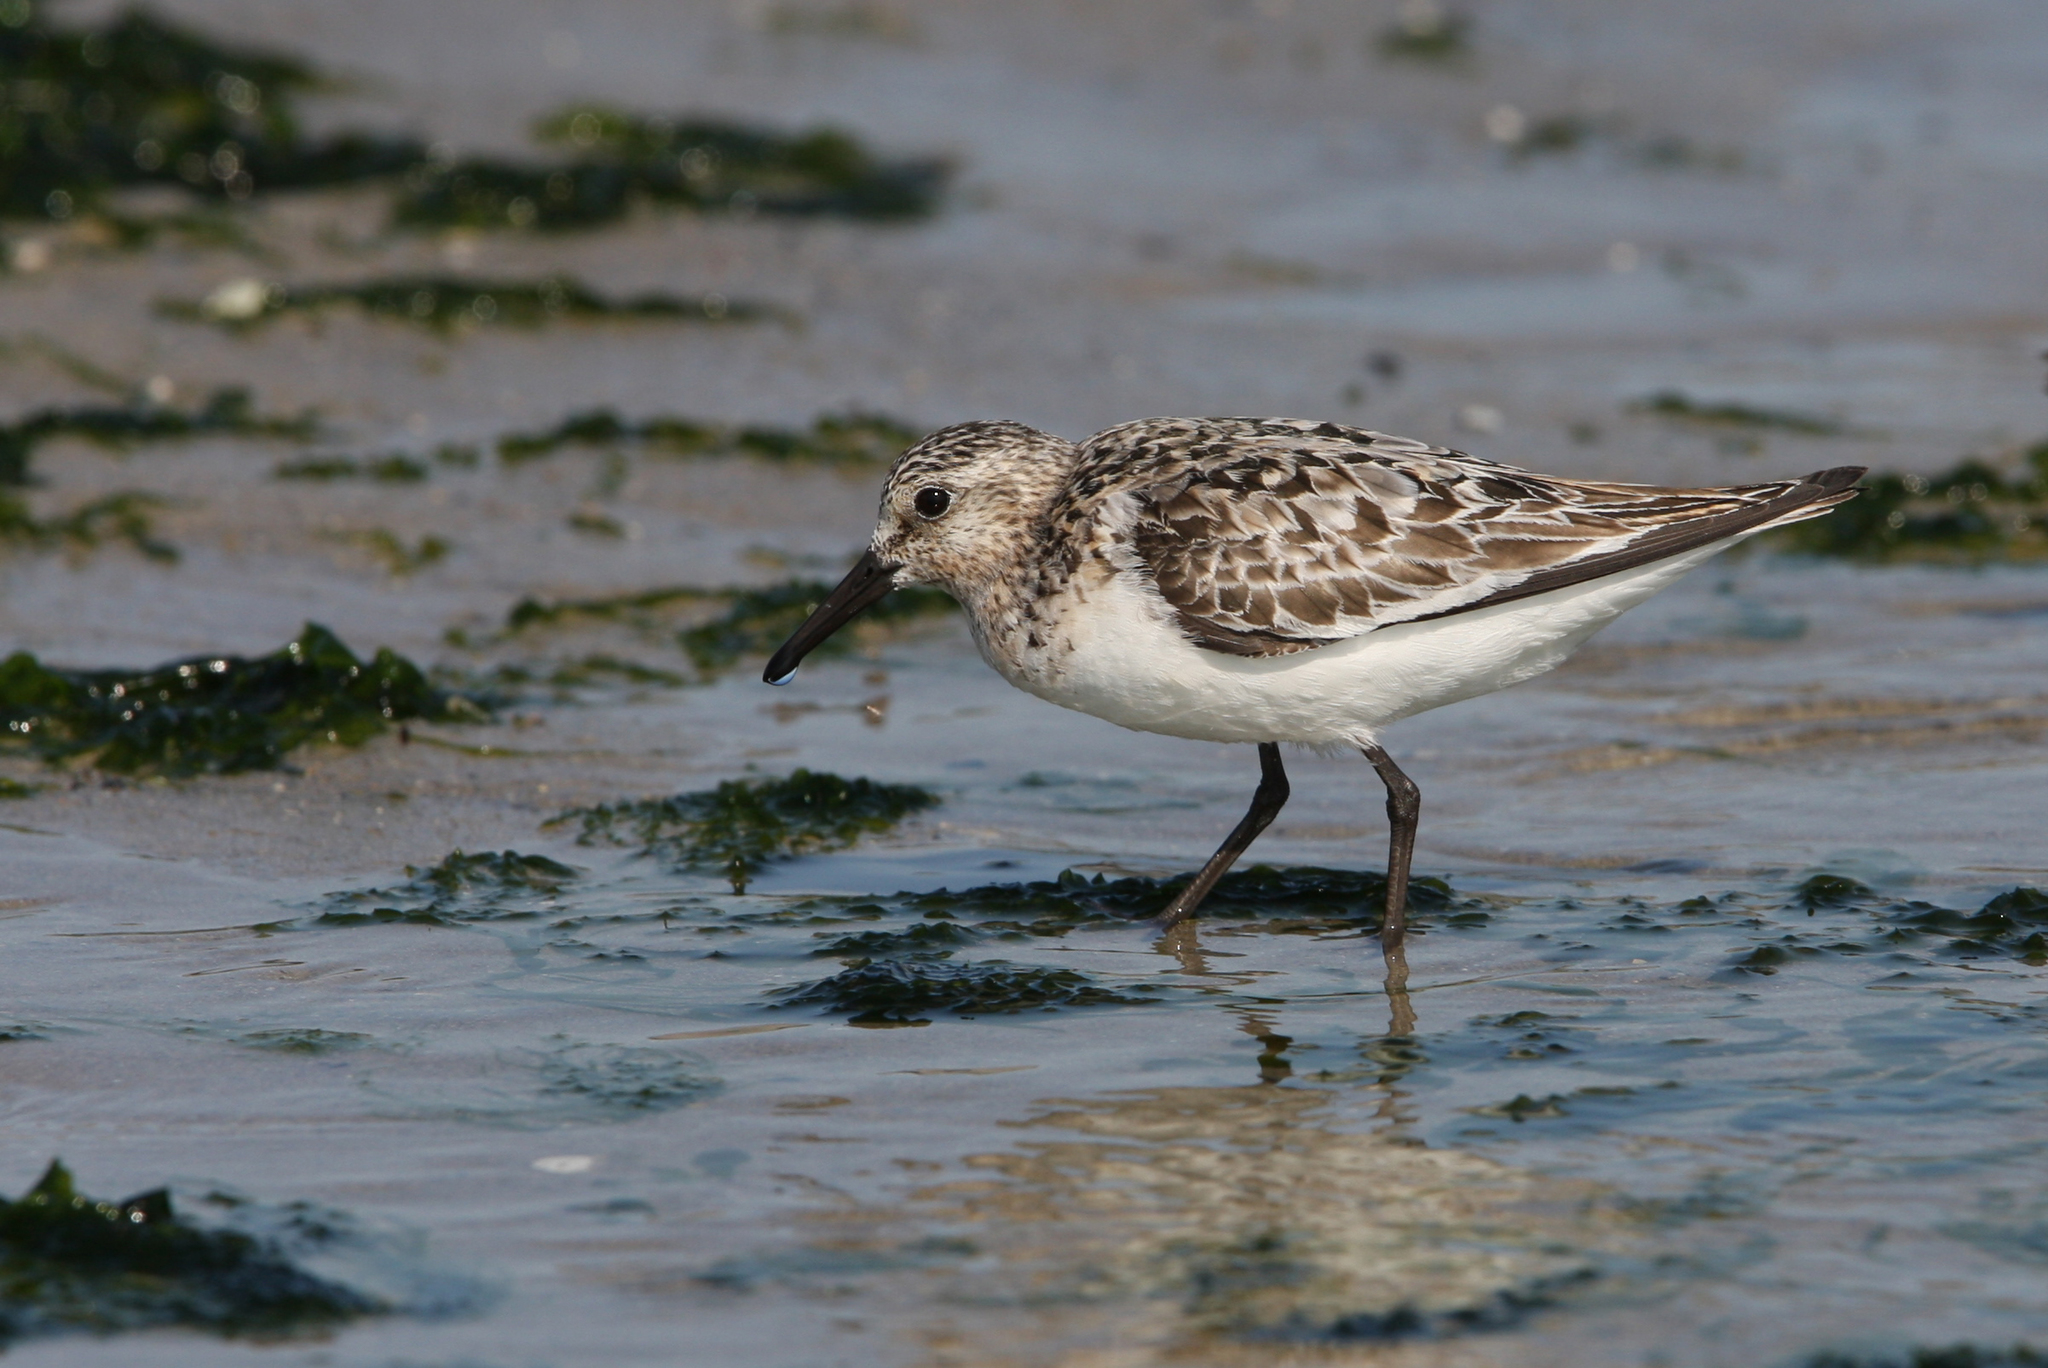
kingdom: Animalia
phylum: Chordata
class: Aves
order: Charadriiformes
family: Scolopacidae
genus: Calidris
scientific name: Calidris alba
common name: Sanderling
